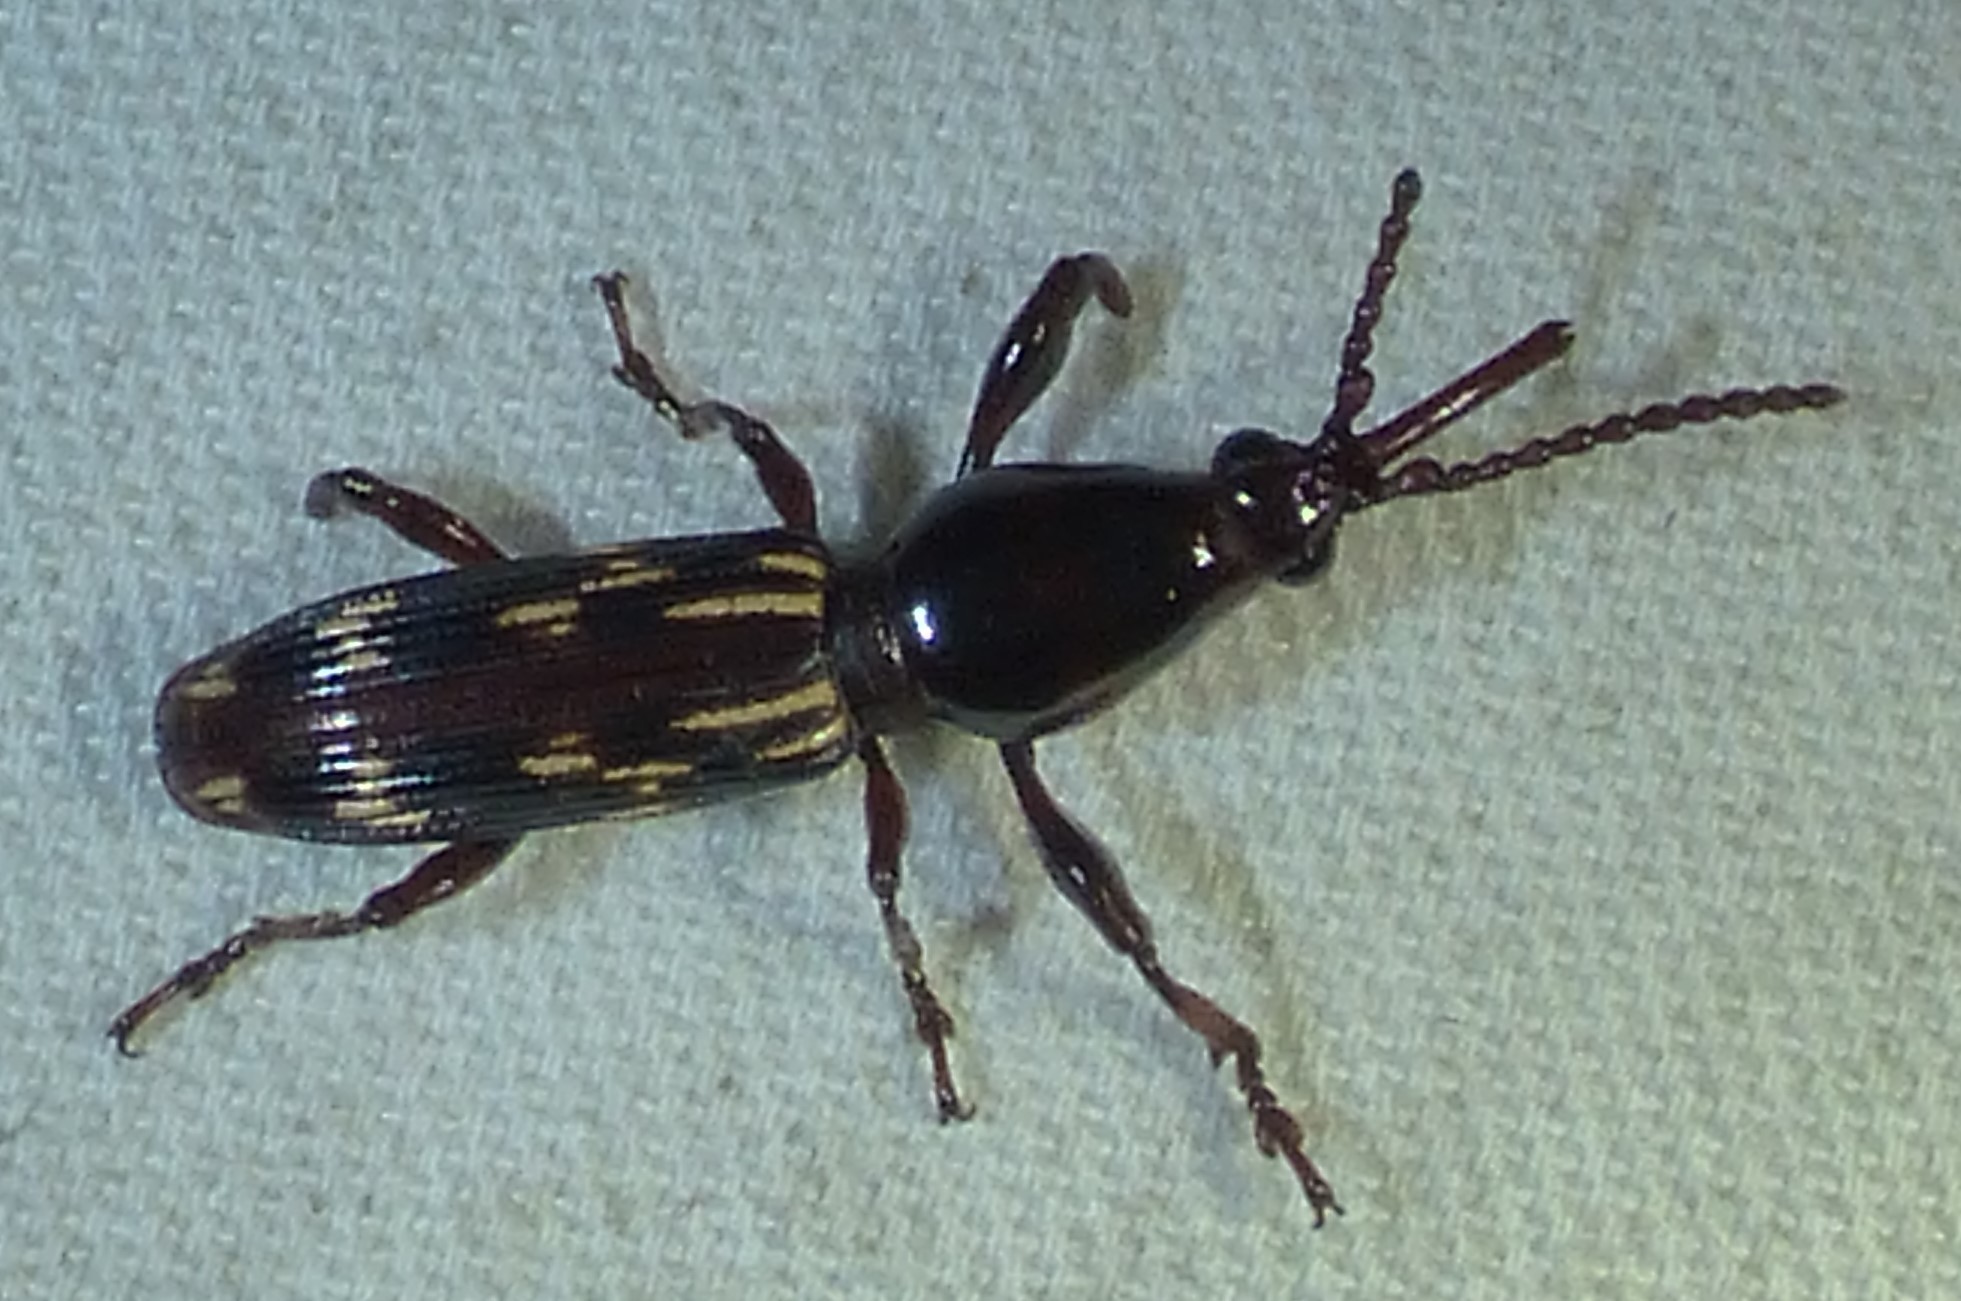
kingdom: Animalia
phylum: Arthropoda
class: Insecta
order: Coleoptera
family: Brentidae
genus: Arrenodes
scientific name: Arrenodes minutus
